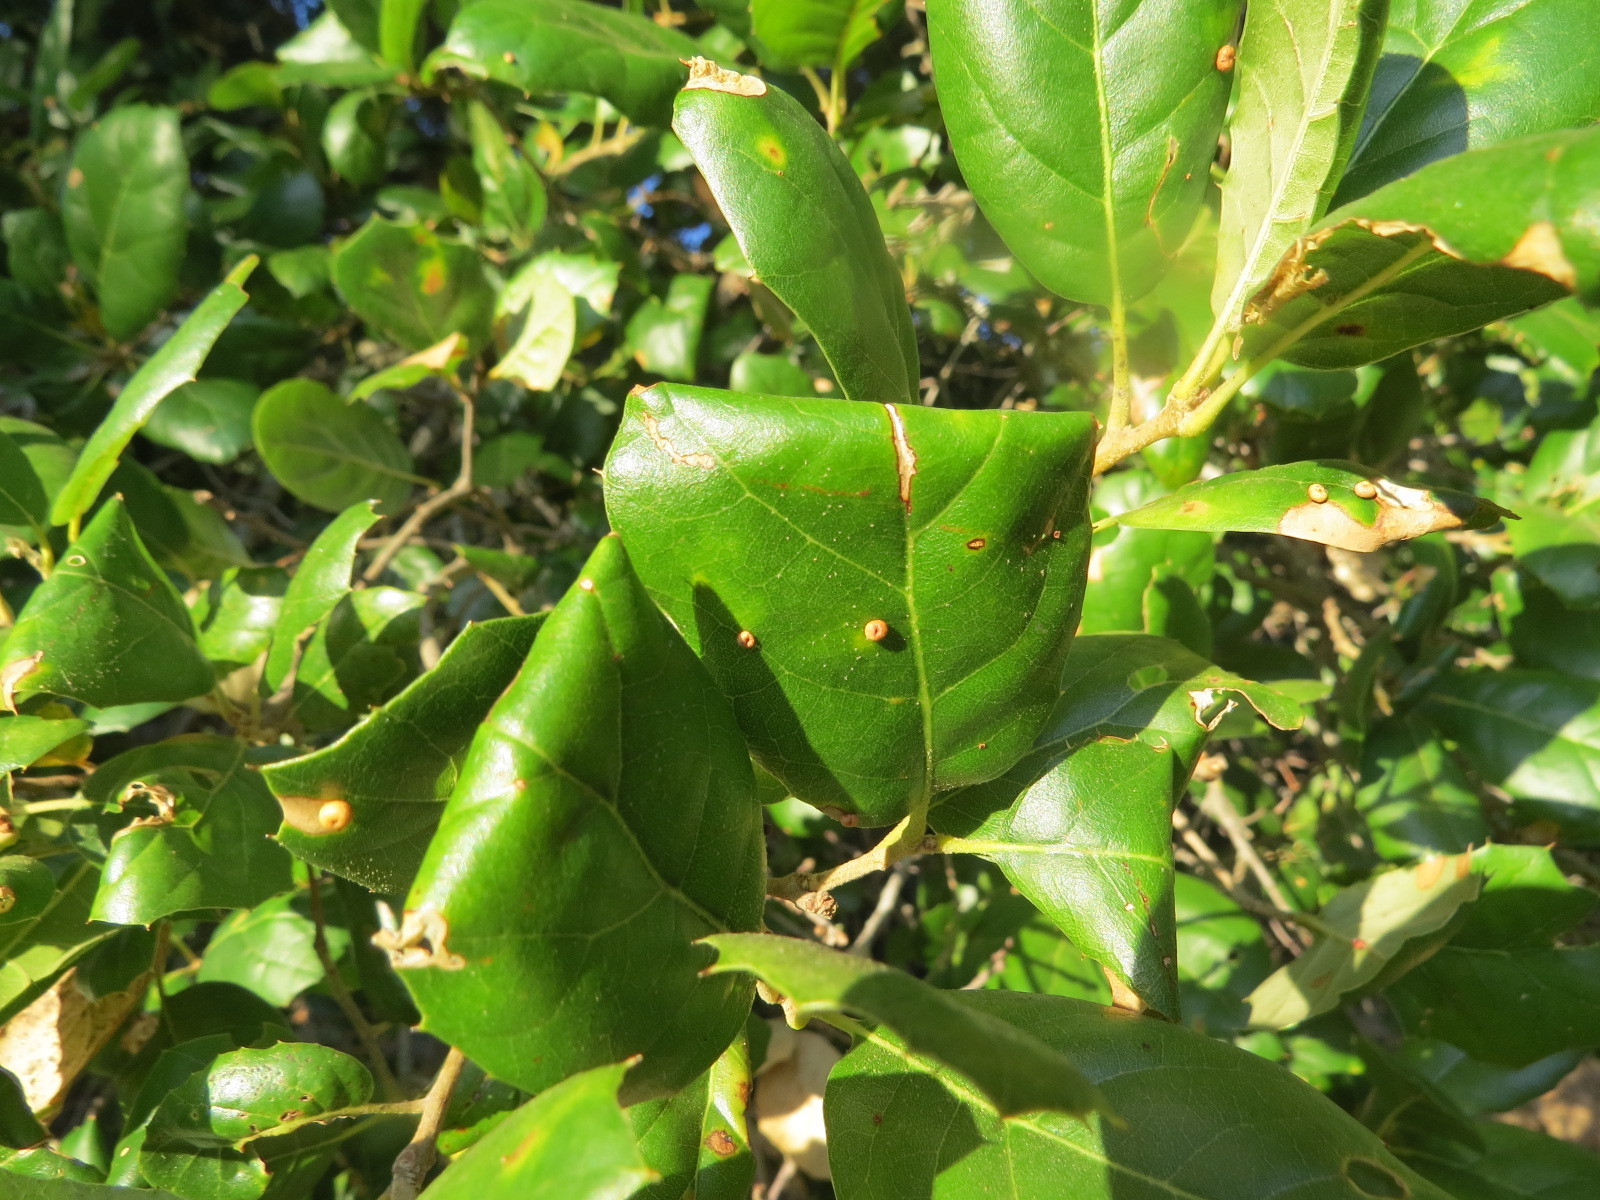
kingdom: Animalia
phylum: Arthropoda
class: Insecta
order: Hymenoptera
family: Cynipidae
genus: Dryocosmus
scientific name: Dryocosmus
